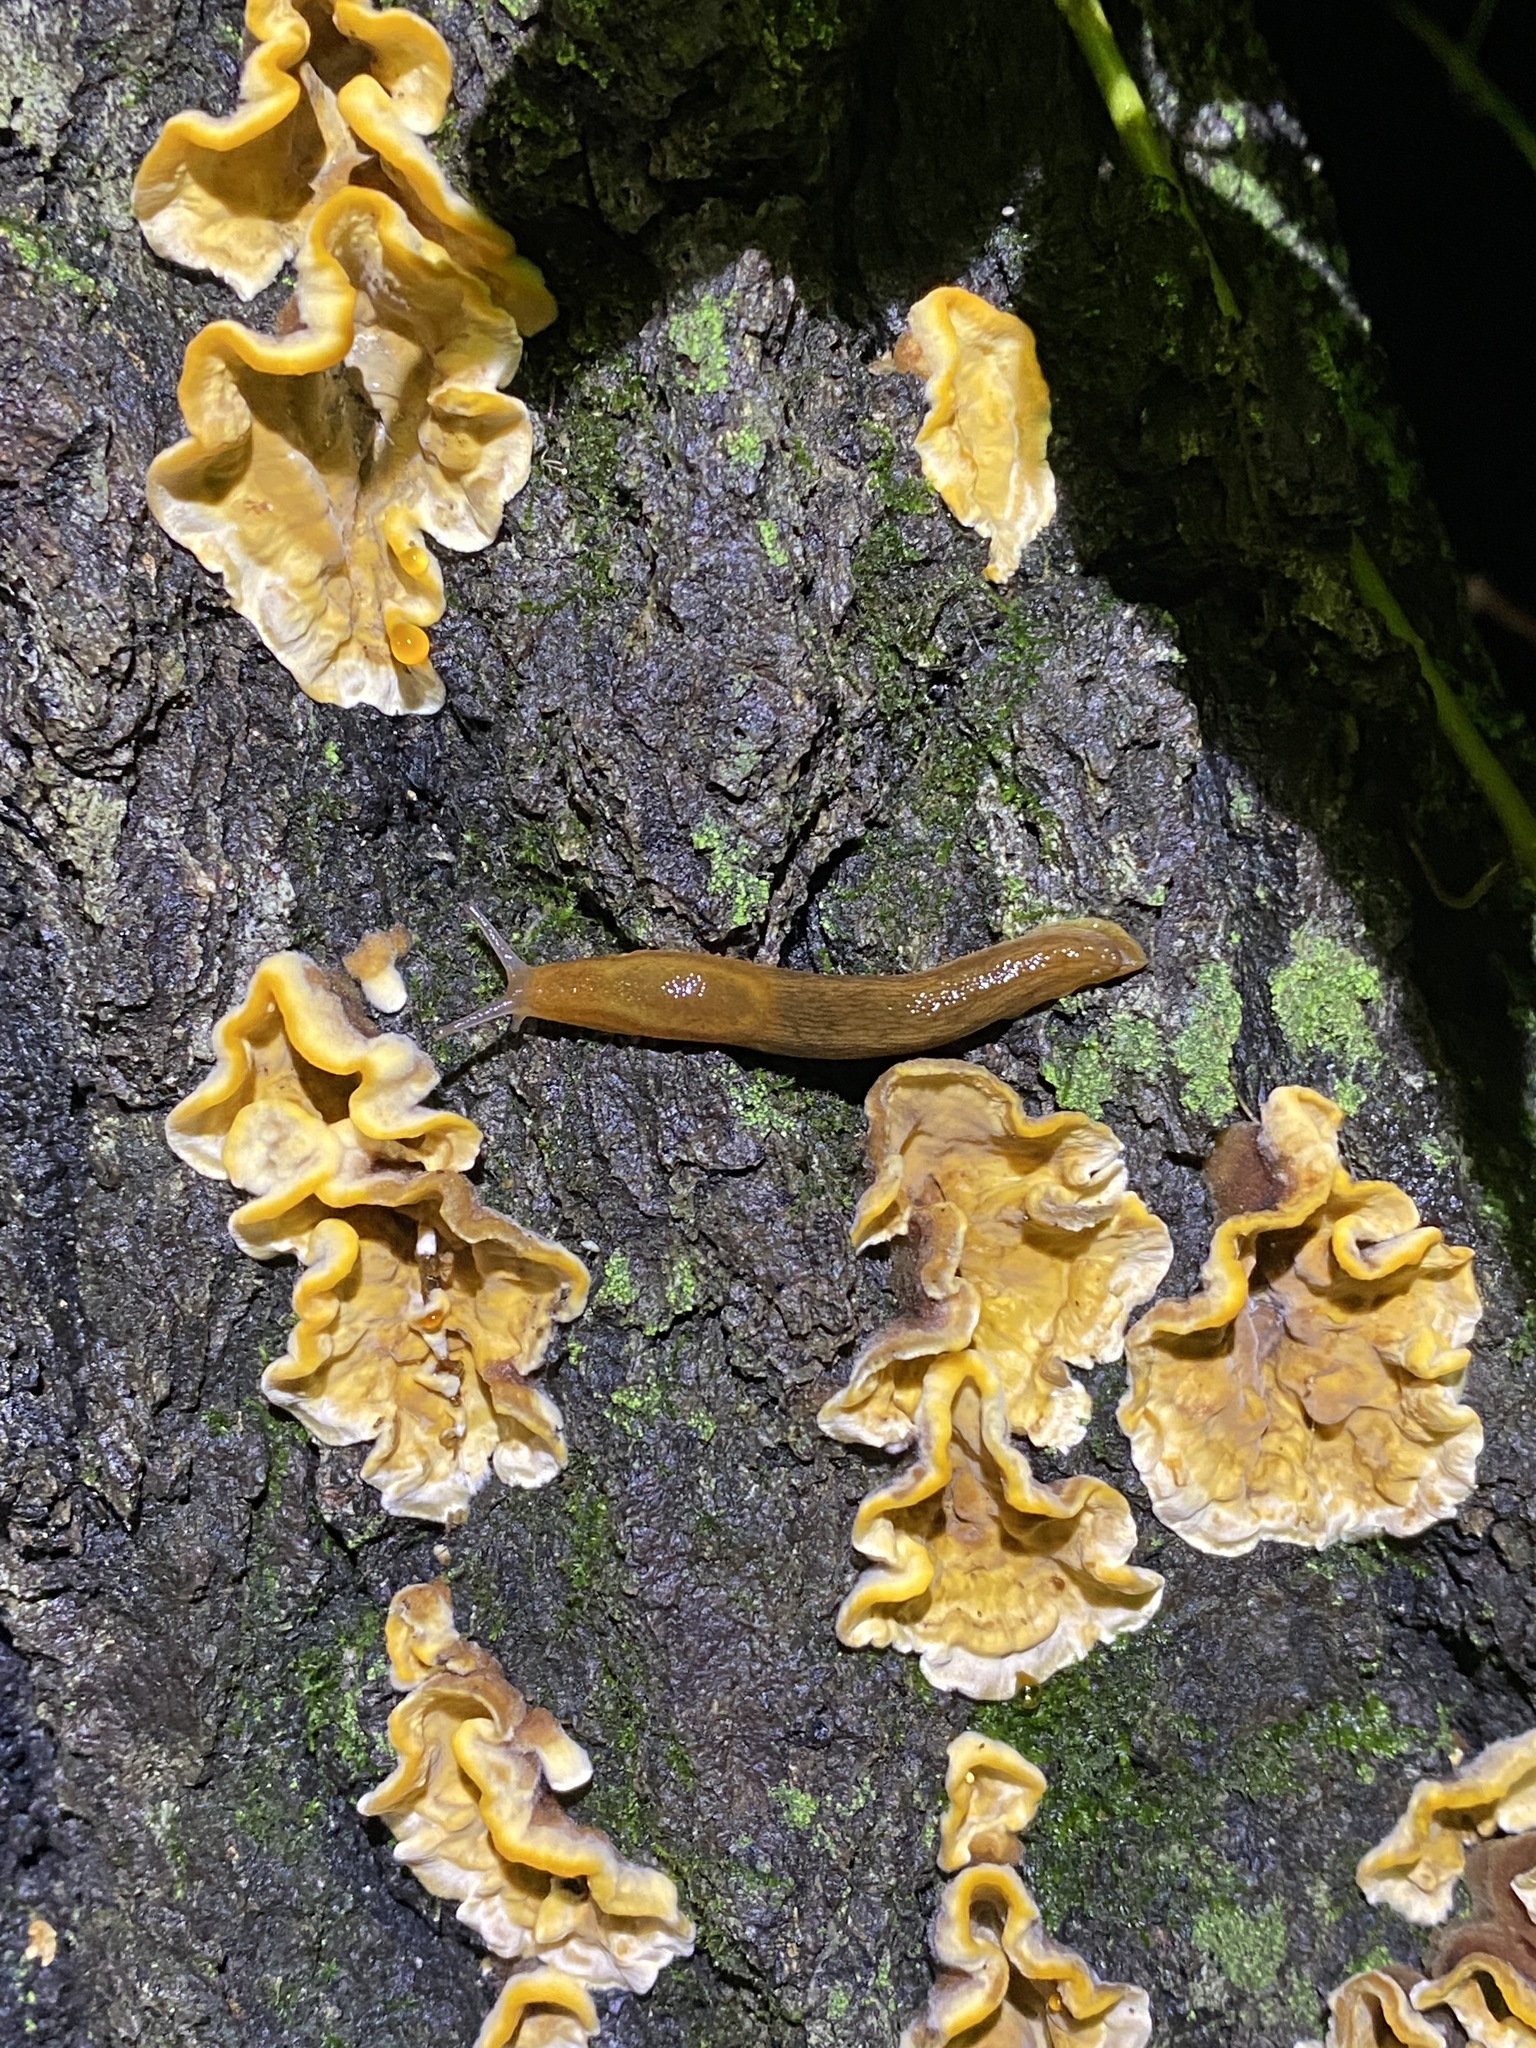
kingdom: Animalia
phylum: Mollusca
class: Gastropoda
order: Stylommatophora
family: Arionidae
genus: Arion
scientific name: Arion subfuscus
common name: Dusky arion
